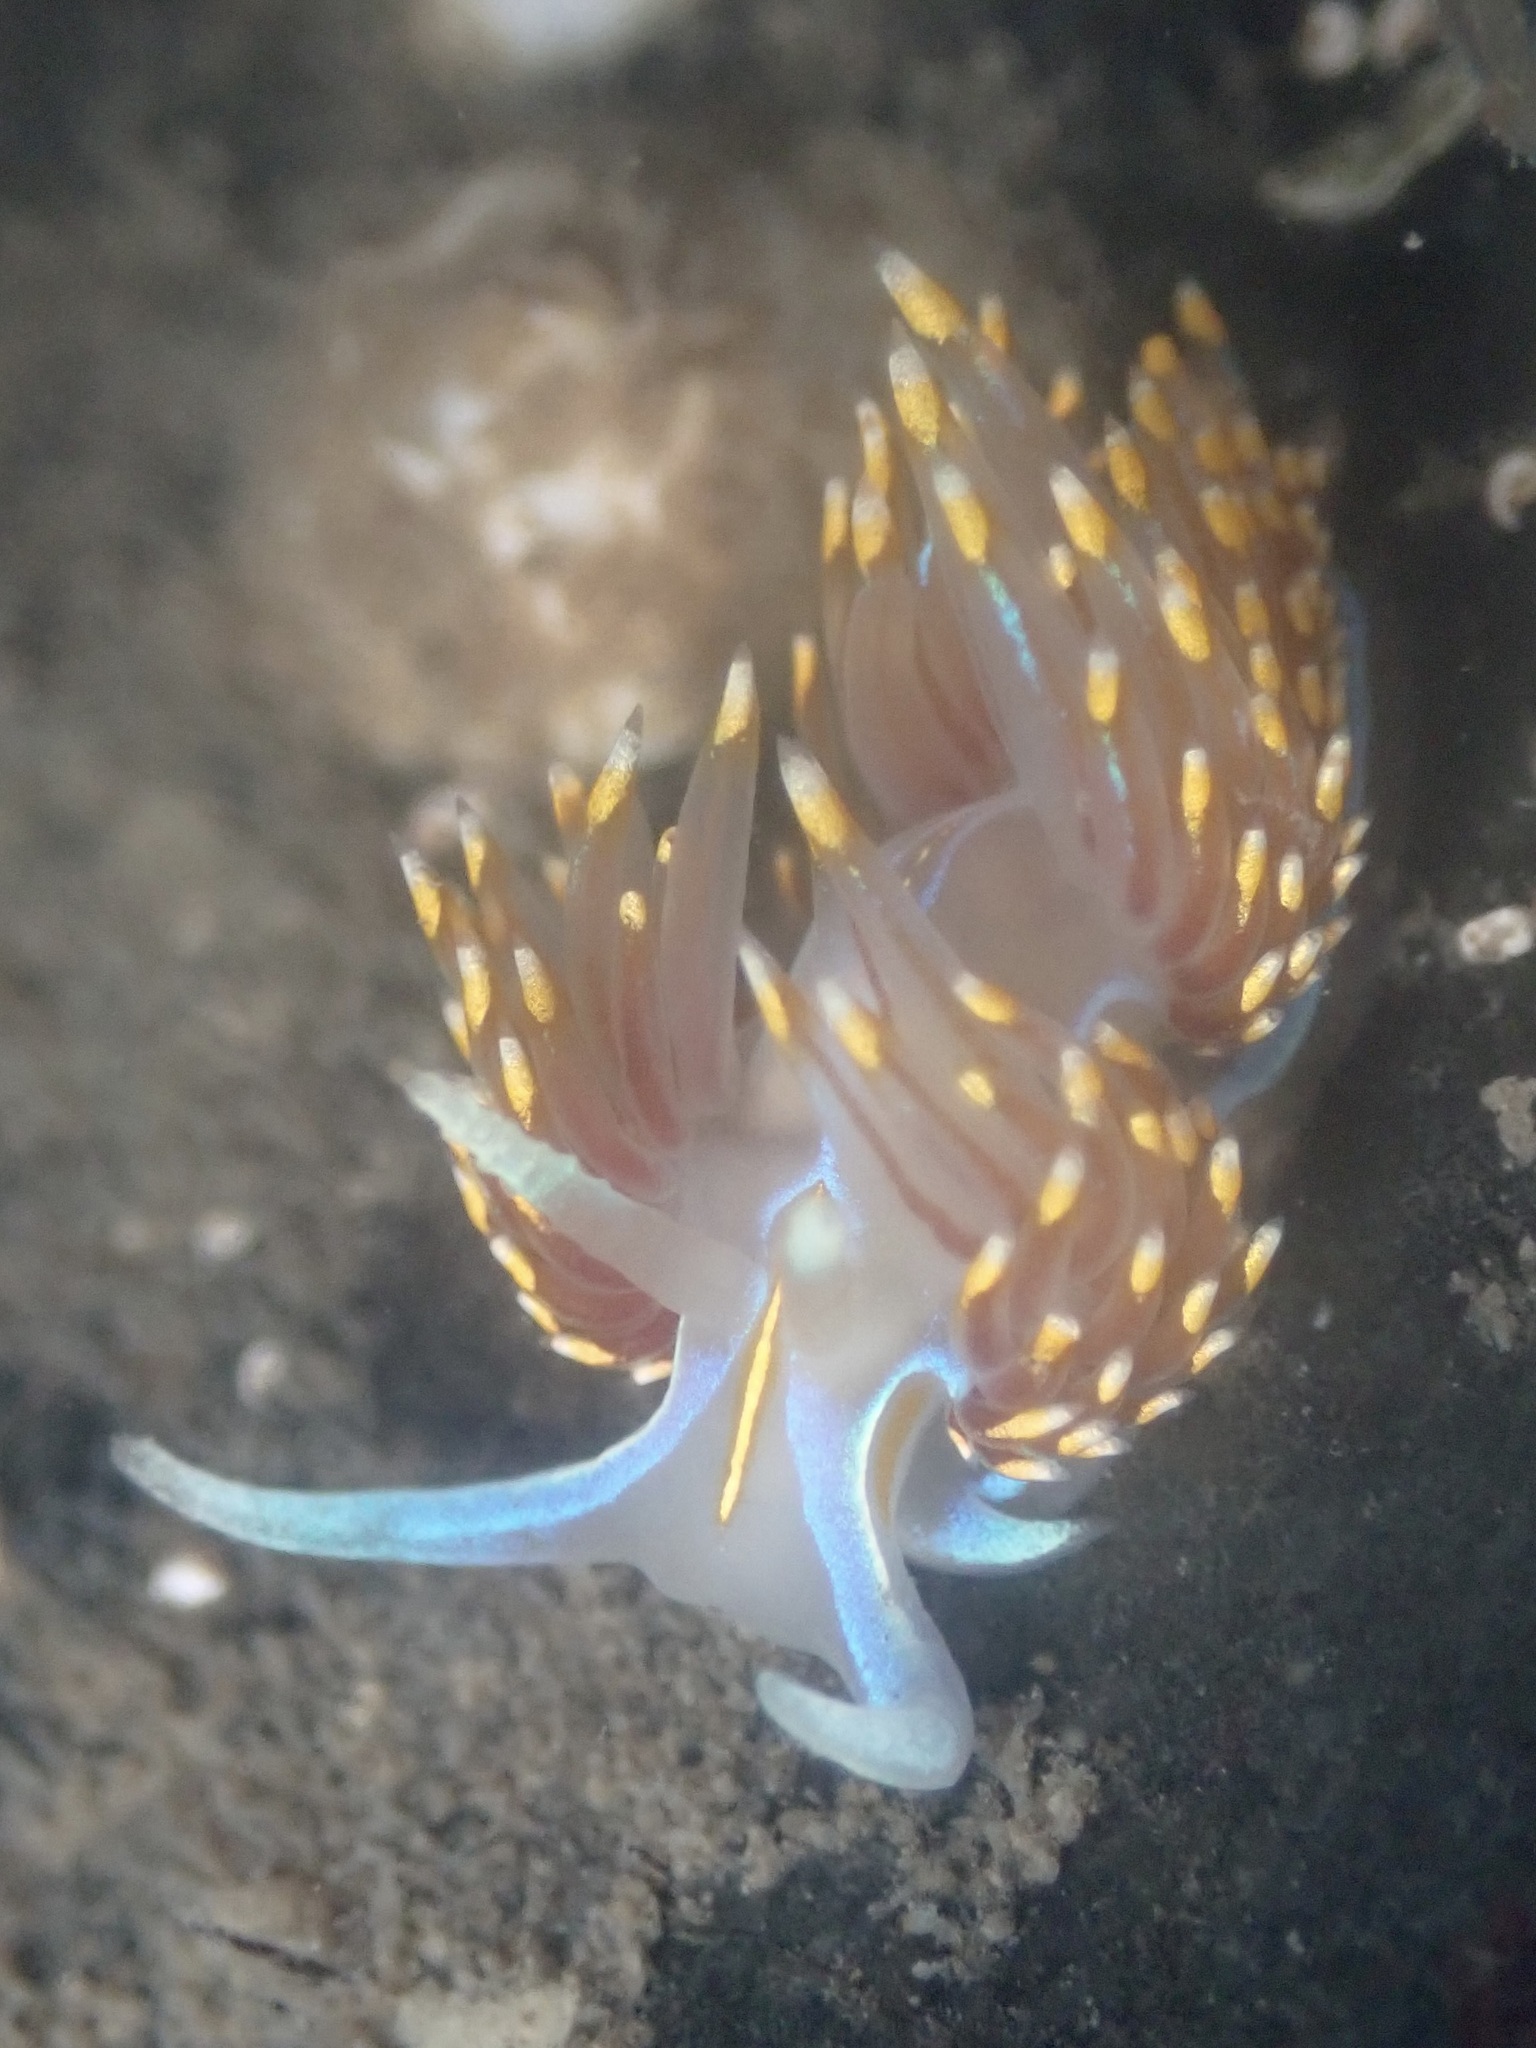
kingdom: Animalia
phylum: Mollusca
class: Gastropoda
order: Nudibranchia
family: Myrrhinidae
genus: Hermissenda
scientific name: Hermissenda opalescens
